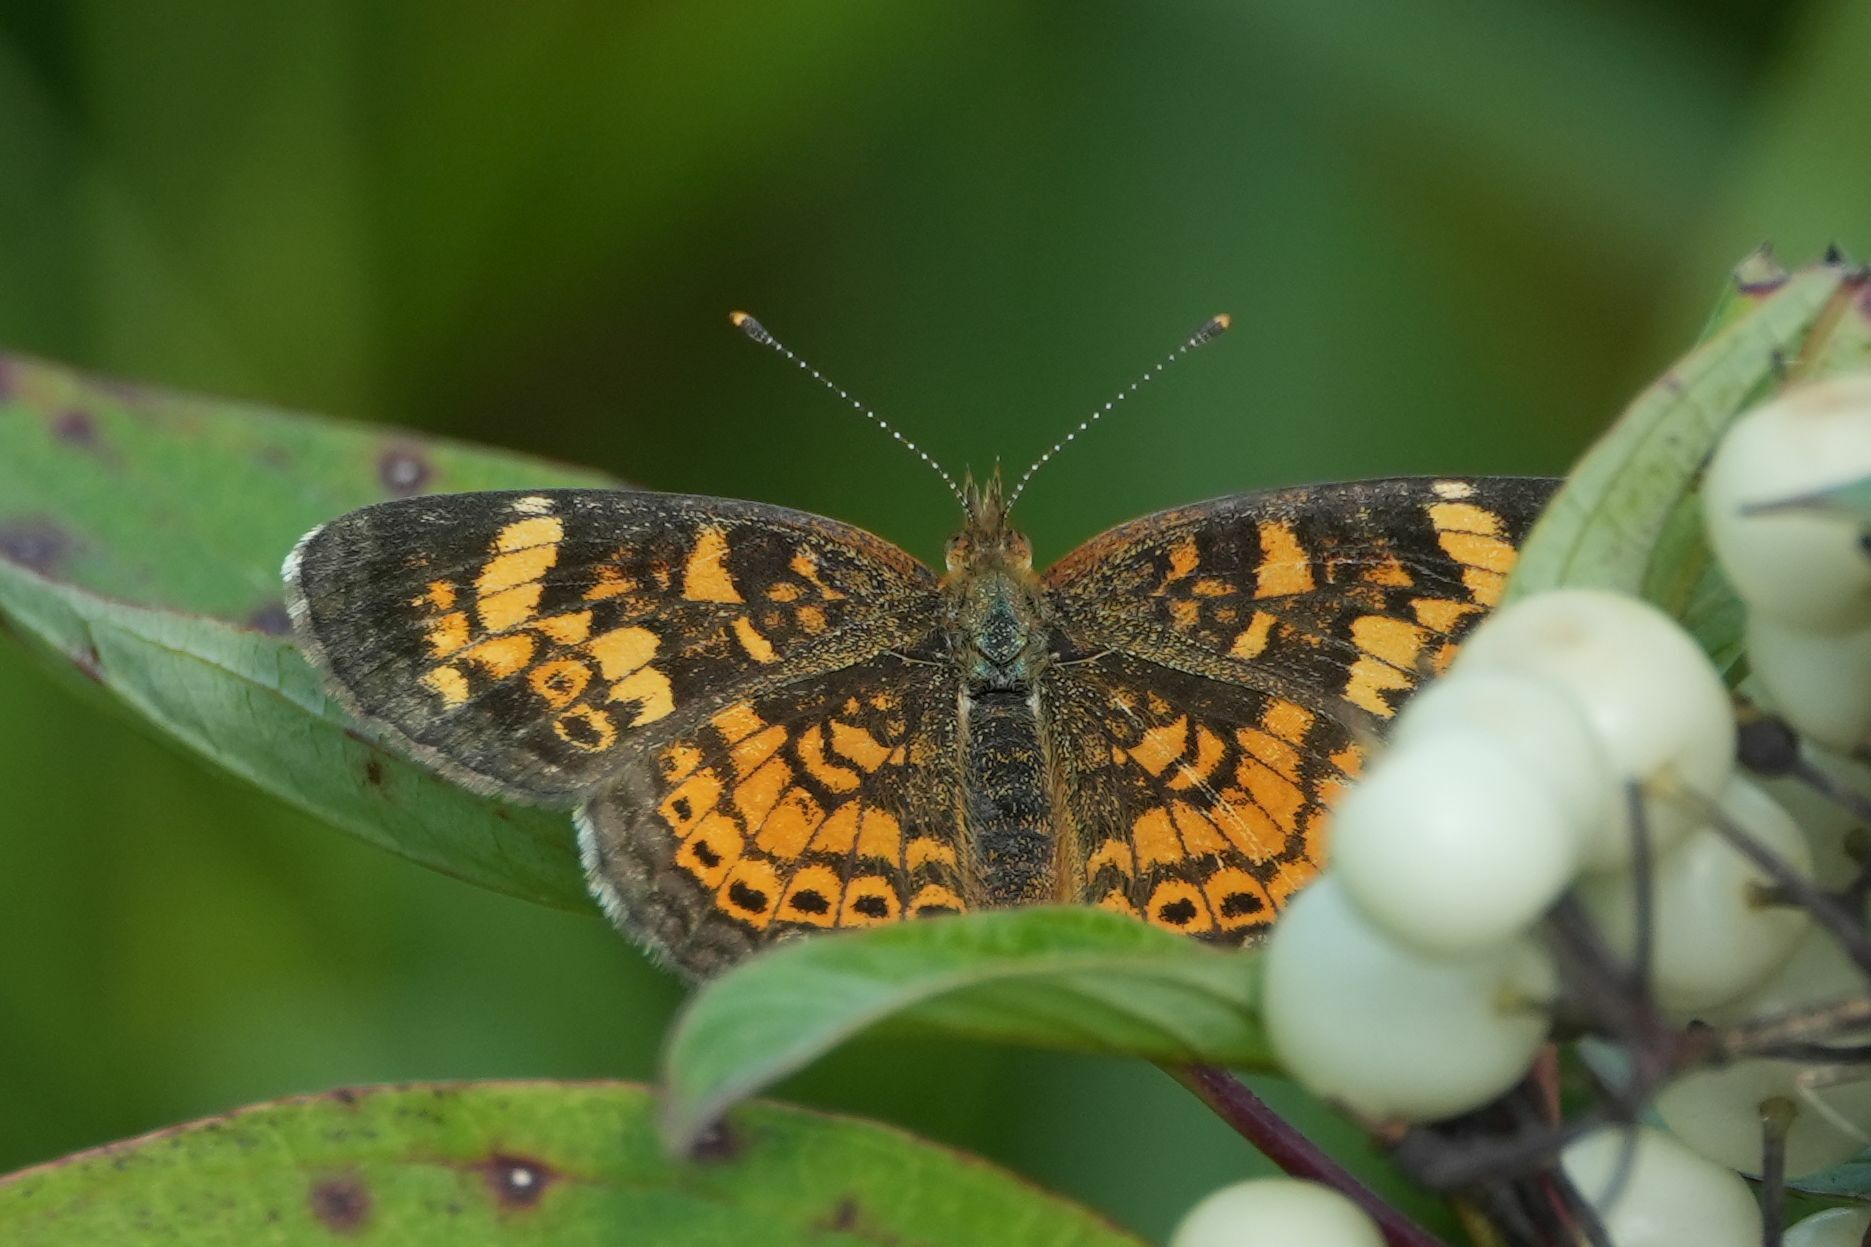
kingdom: Animalia
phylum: Arthropoda
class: Insecta
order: Lepidoptera
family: Nymphalidae
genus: Phyciodes
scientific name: Phyciodes tharos
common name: Pearl crescent
